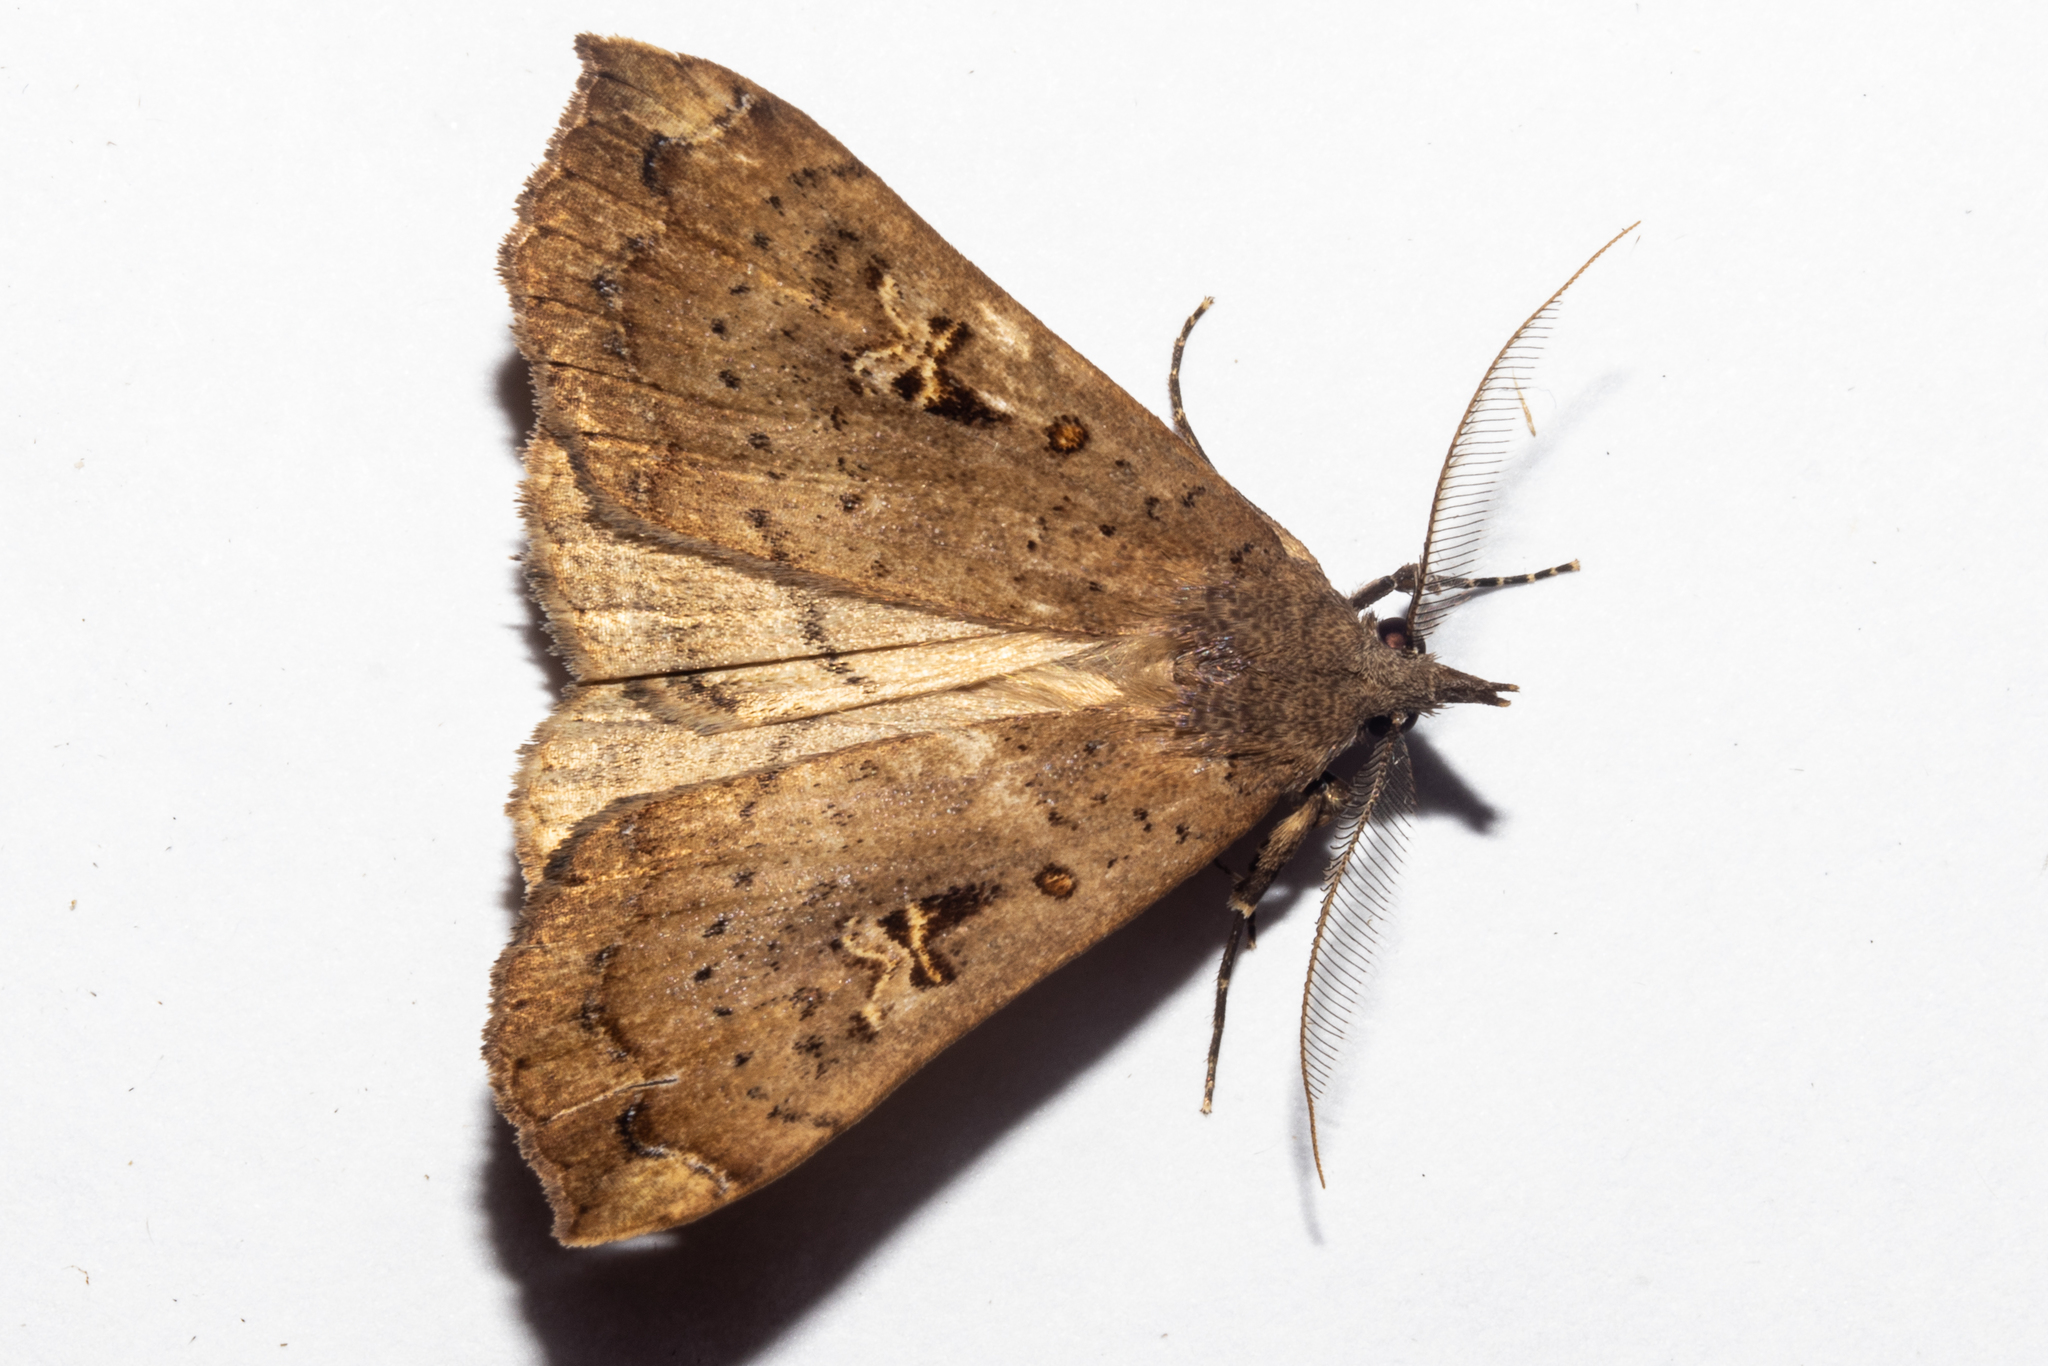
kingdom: Animalia
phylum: Arthropoda
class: Insecta
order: Lepidoptera
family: Erebidae
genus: Rhapsa
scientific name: Rhapsa scotosialis
